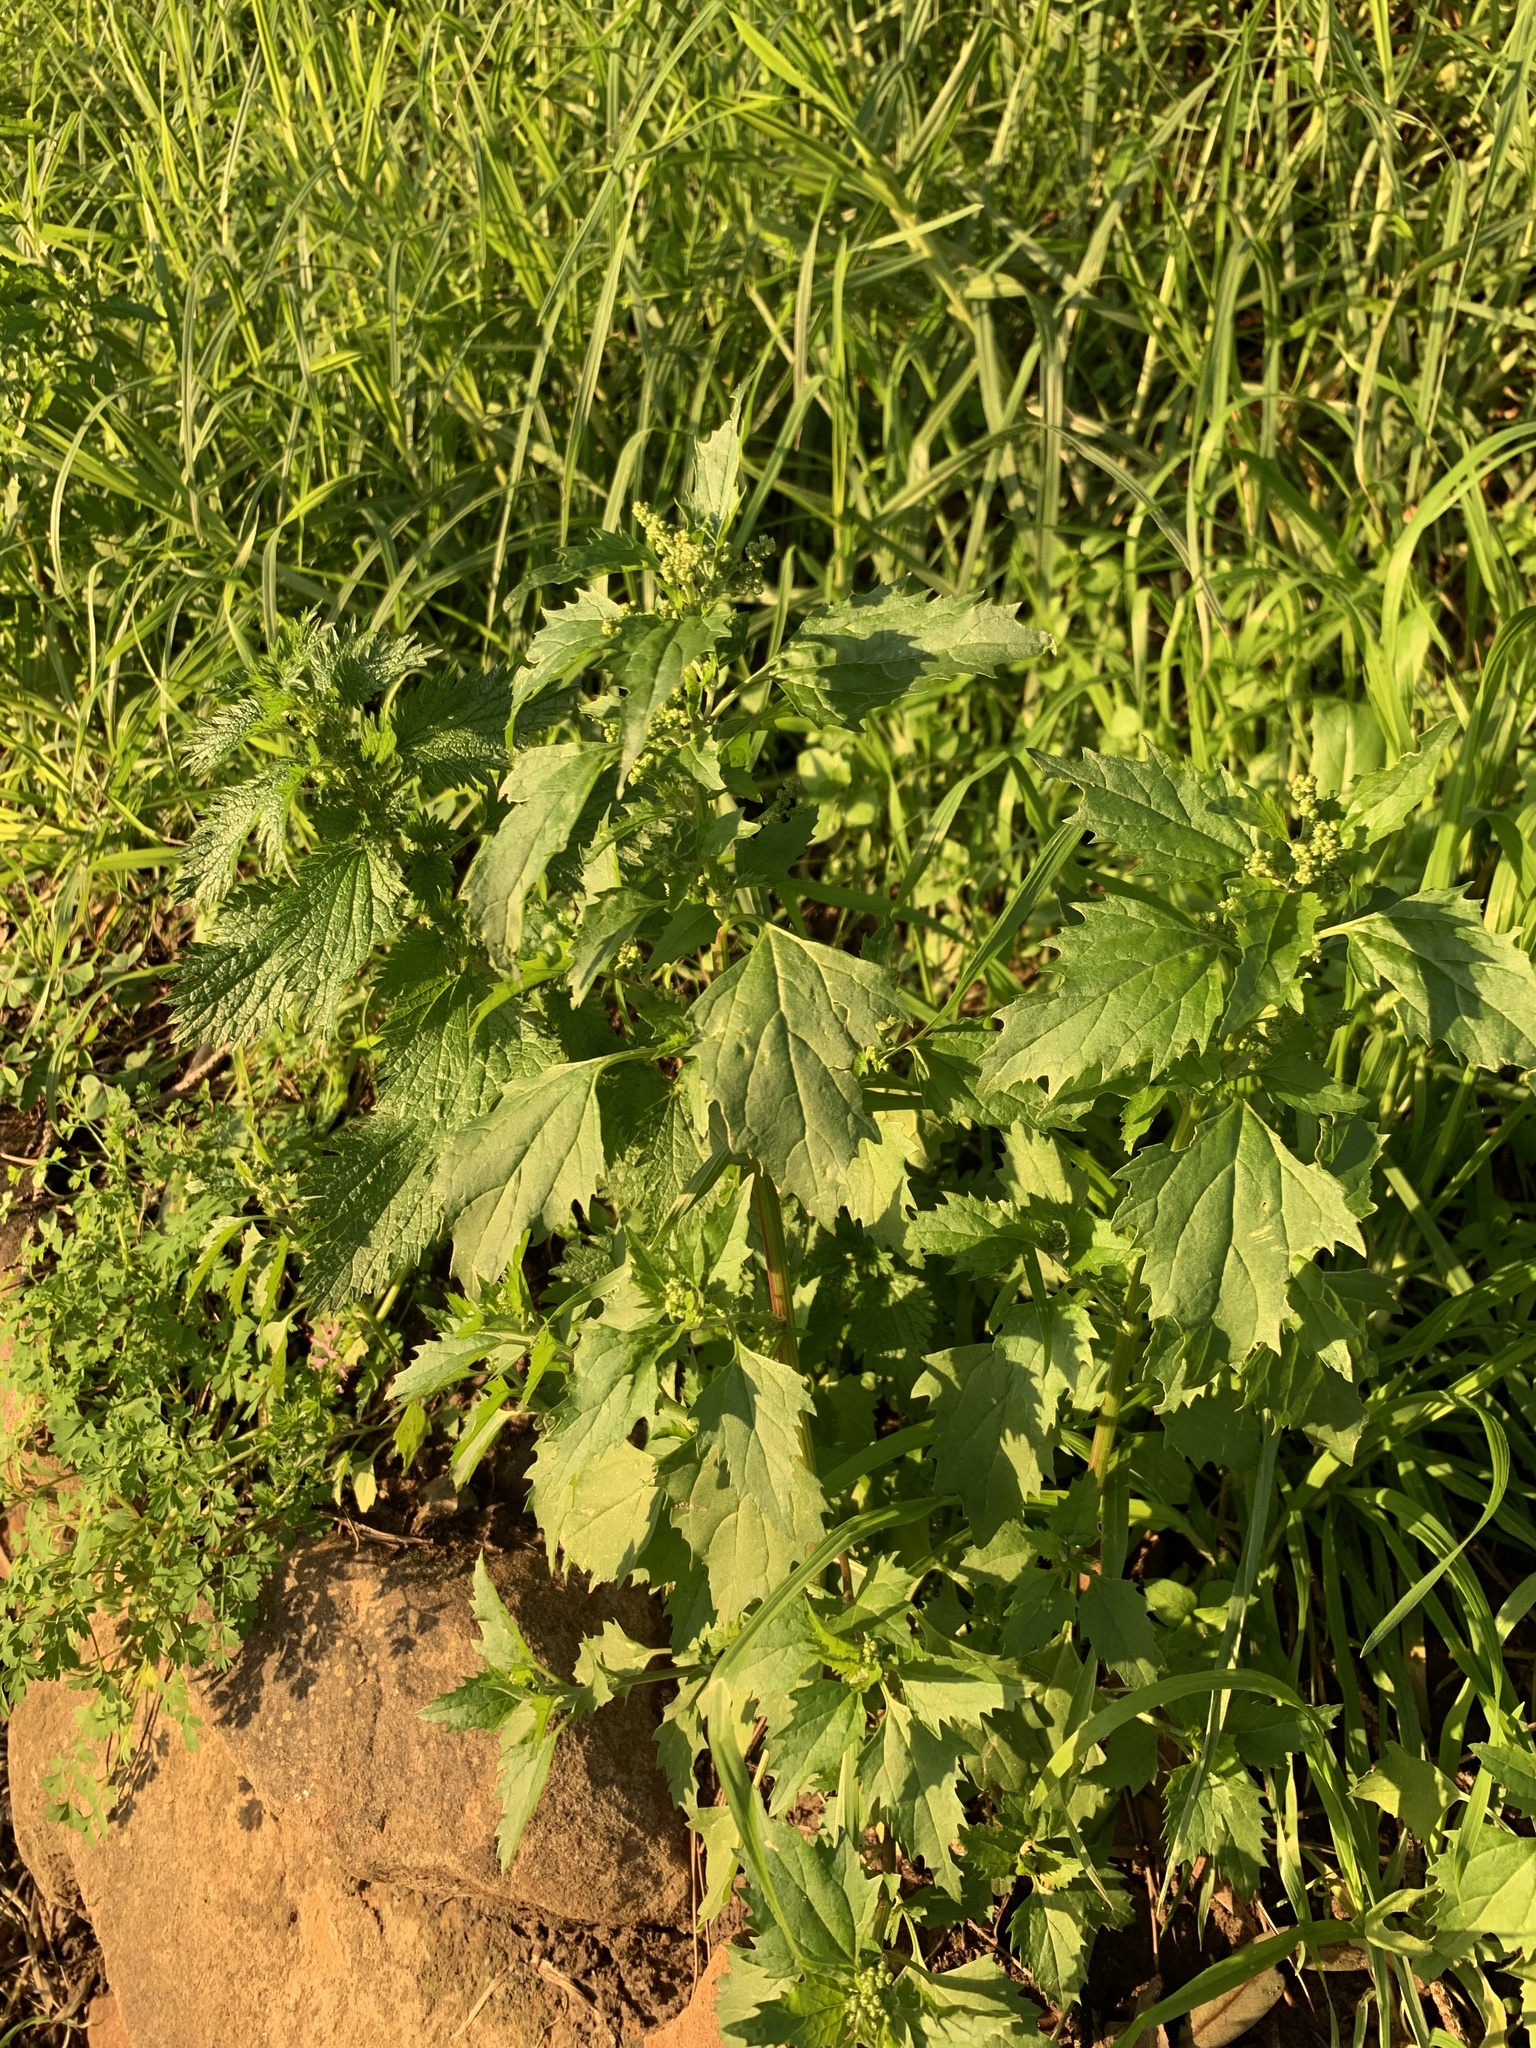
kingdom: Plantae
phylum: Tracheophyta
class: Magnoliopsida
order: Caryophyllales
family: Amaranthaceae
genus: Chenopodiastrum
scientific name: Chenopodiastrum murale
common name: Sowbane
